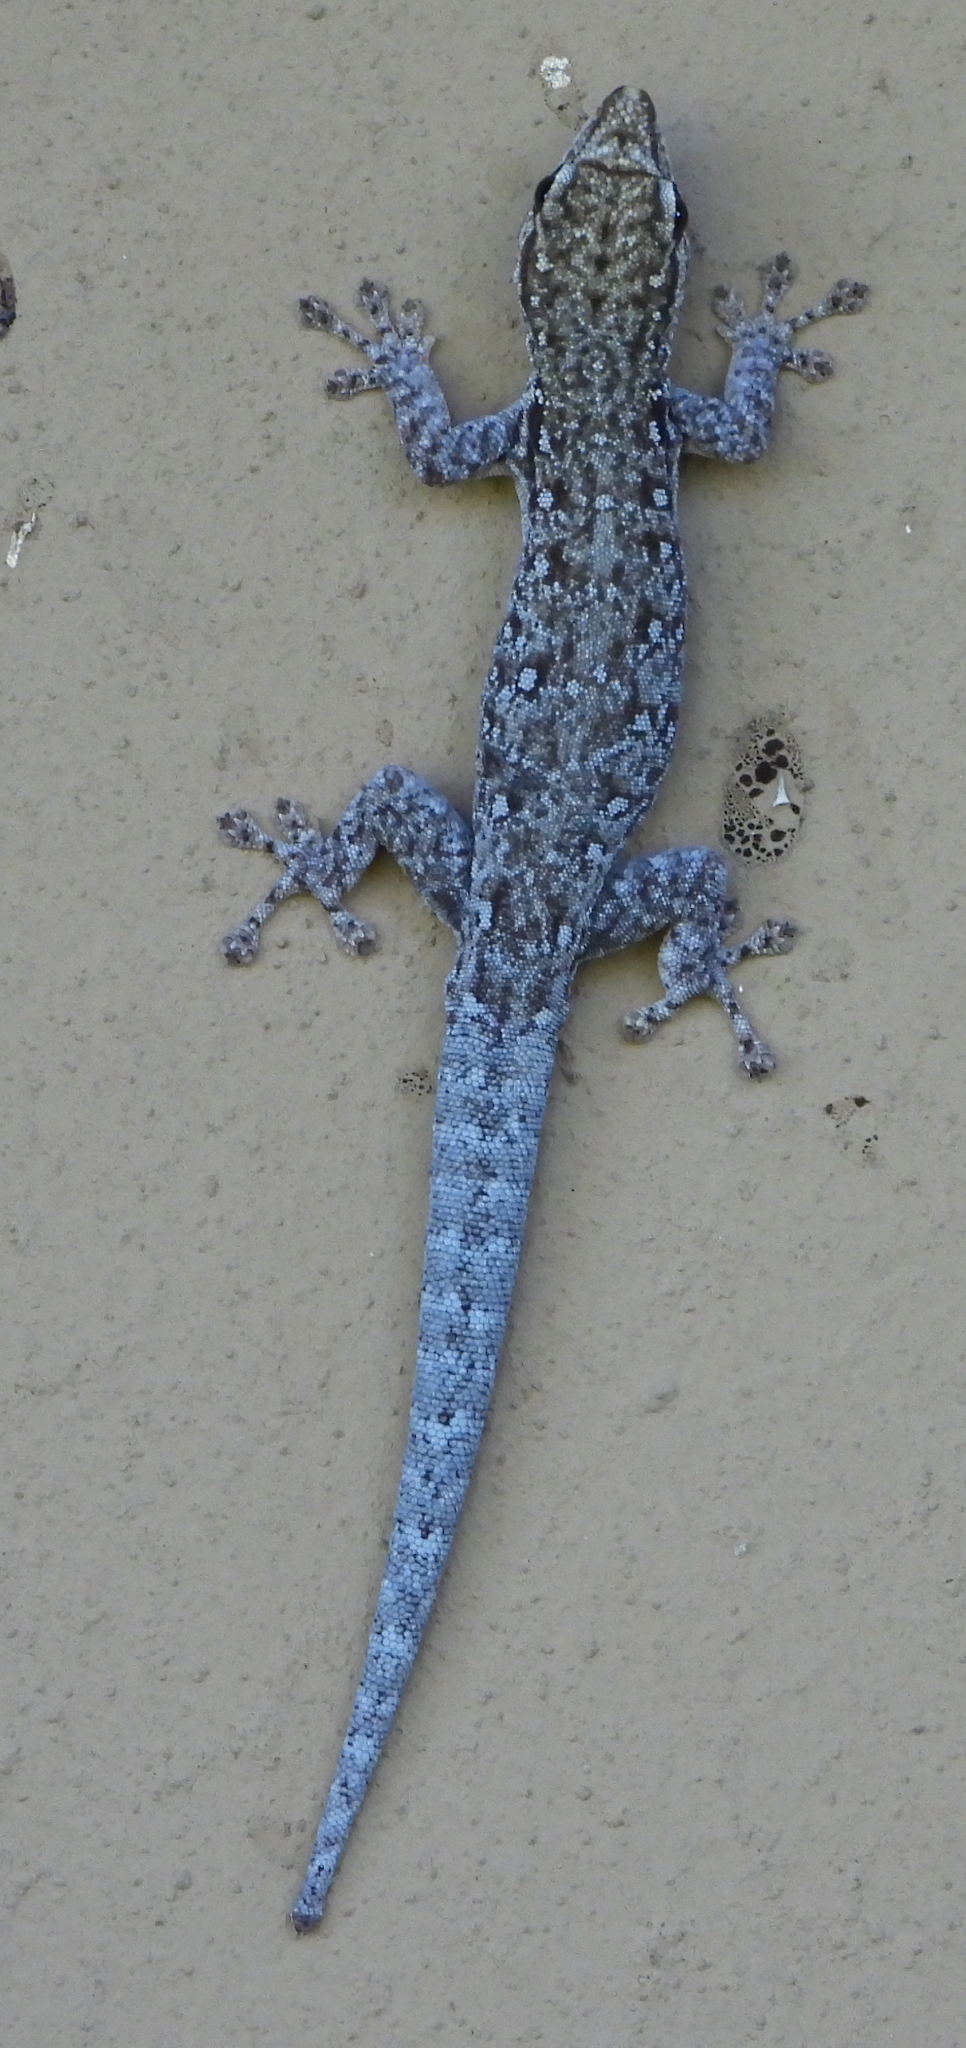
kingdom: Animalia
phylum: Chordata
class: Squamata
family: Gekkonidae
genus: Lygodactylus
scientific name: Lygodactylus chobiensis
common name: Okavango dwarf gecko
